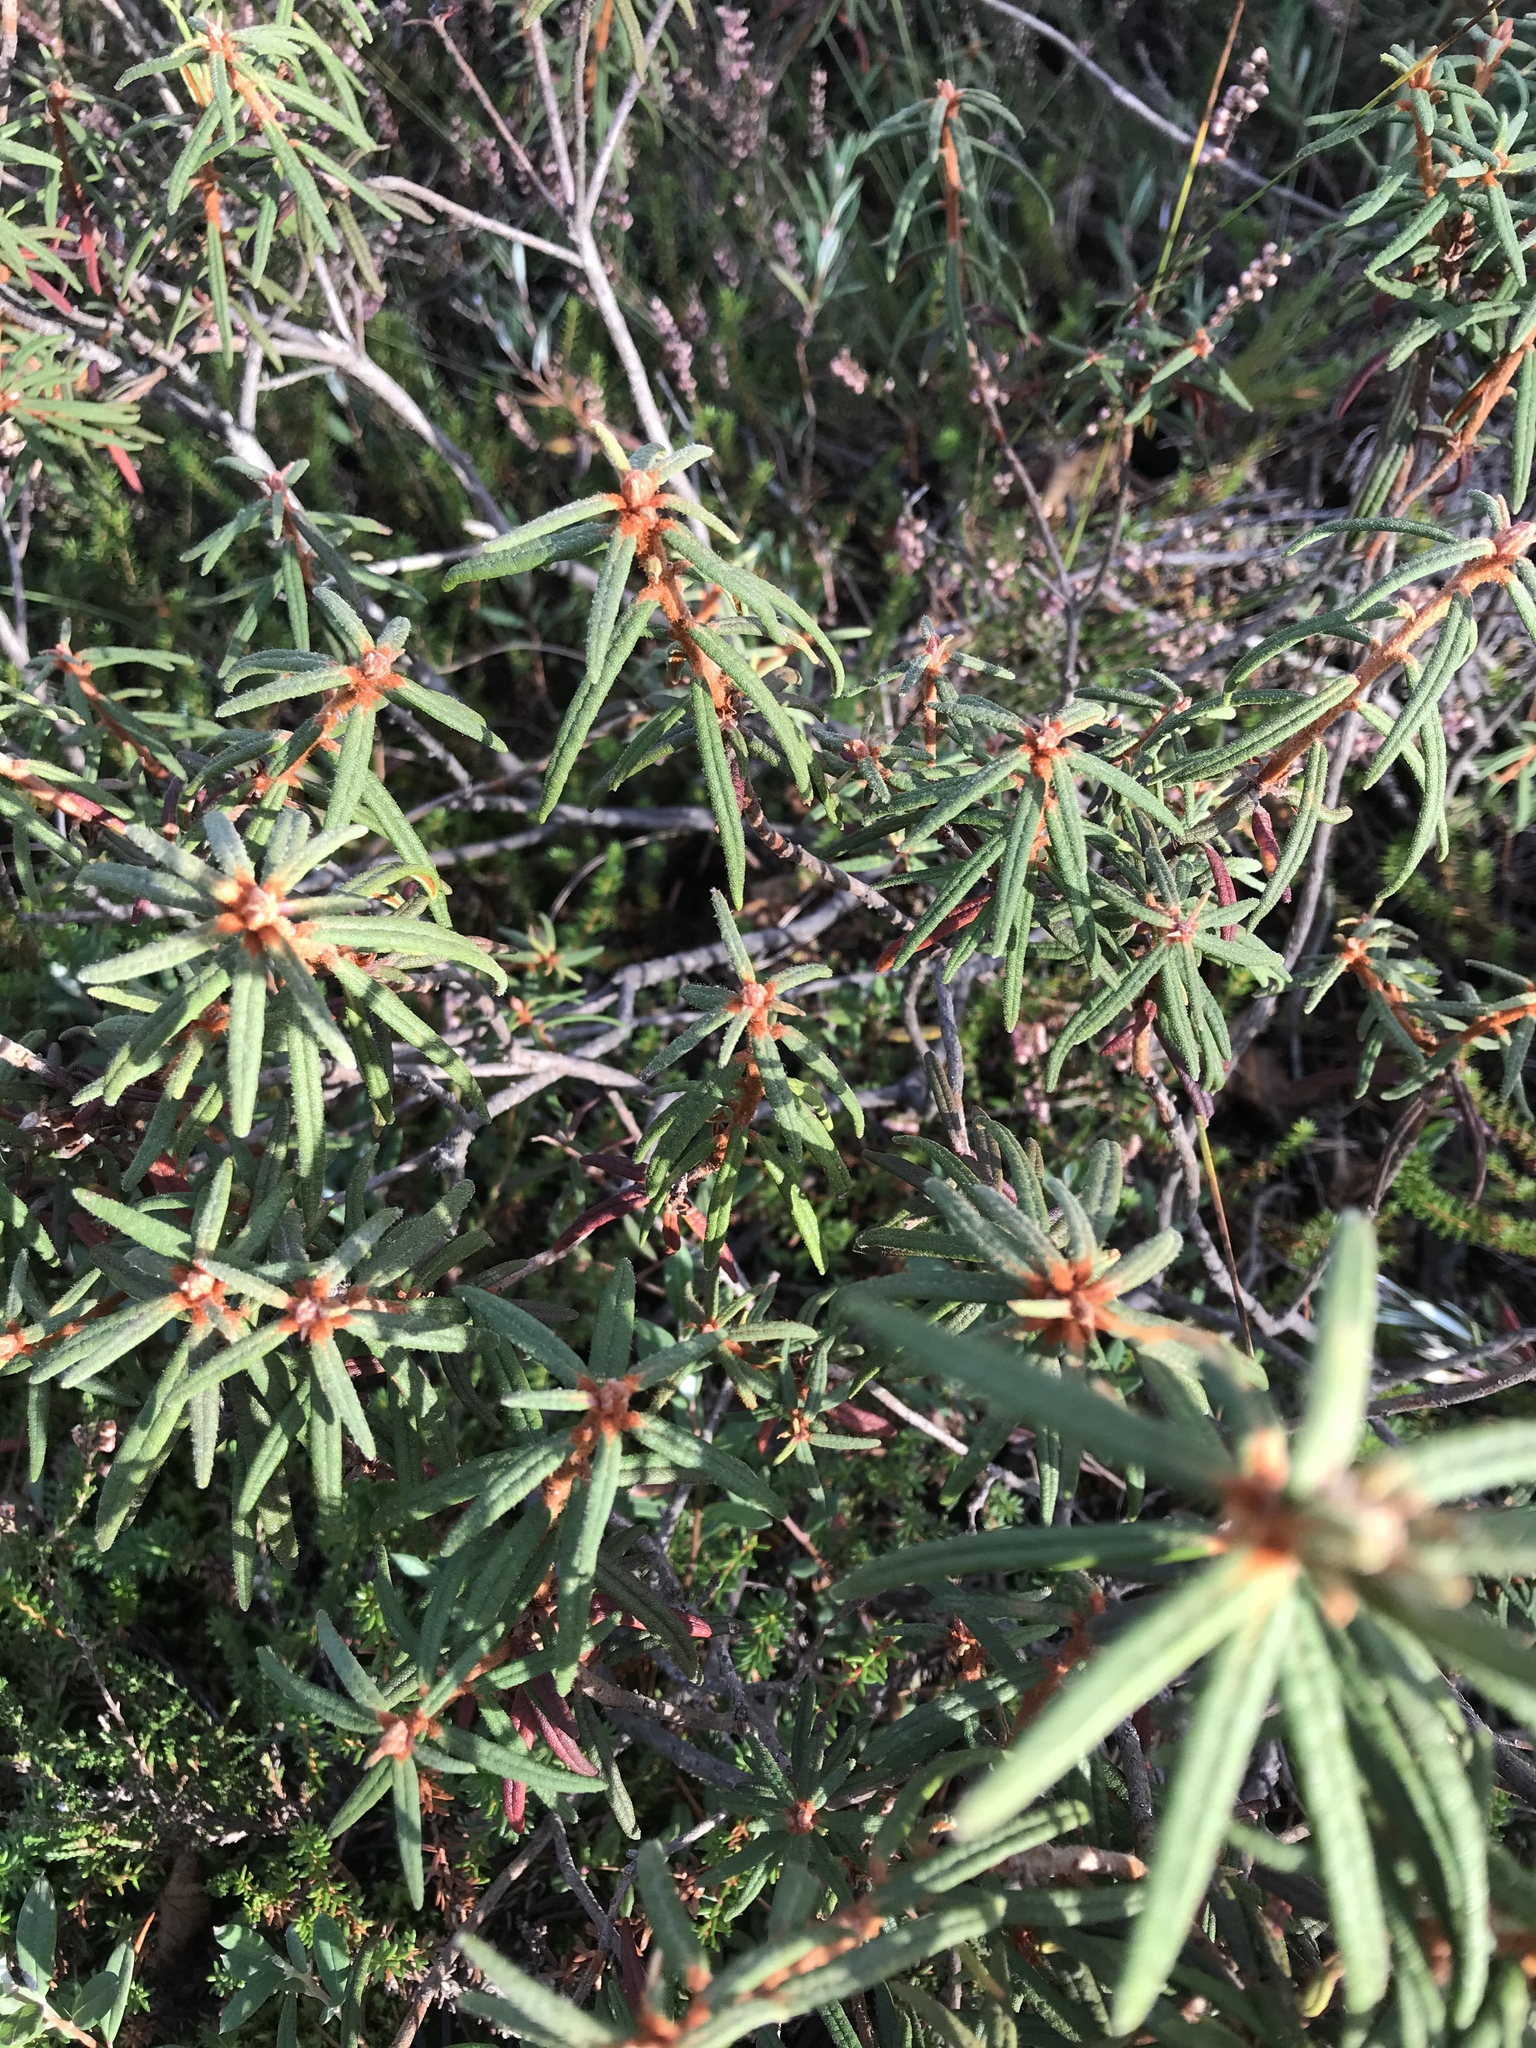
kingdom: Plantae
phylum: Tracheophyta
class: Magnoliopsida
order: Ericales
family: Ericaceae
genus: Rhododendron
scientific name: Rhododendron tomentosum
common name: Marsh labrador tea
